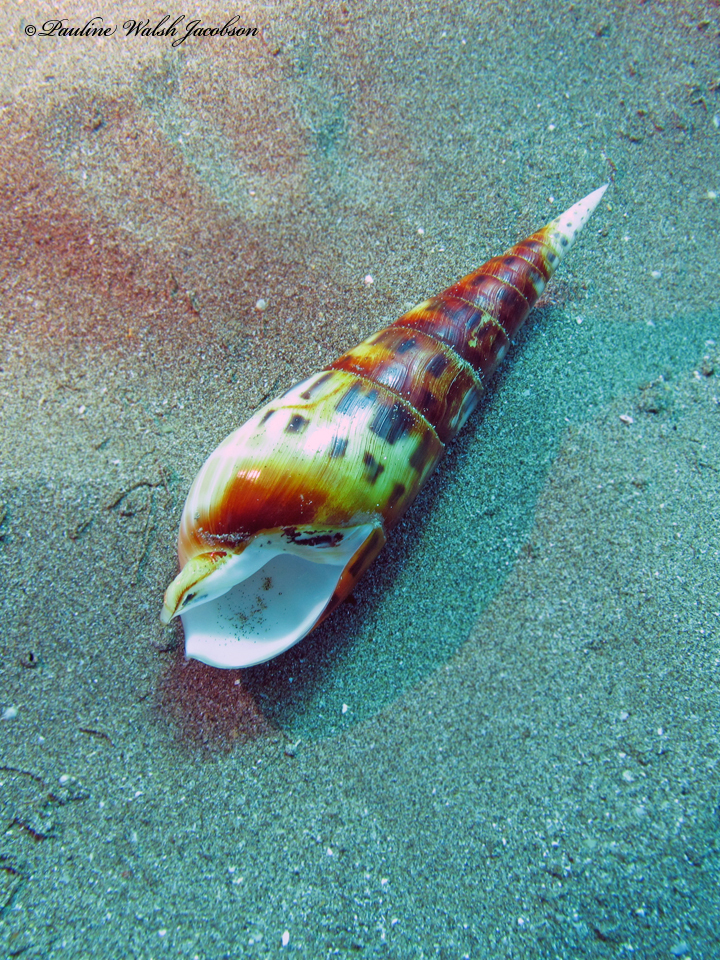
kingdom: Animalia
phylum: Mollusca
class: Gastropoda
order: Neogastropoda
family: Terebridae
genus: Oxymeris
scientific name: Oxymeris maculata
